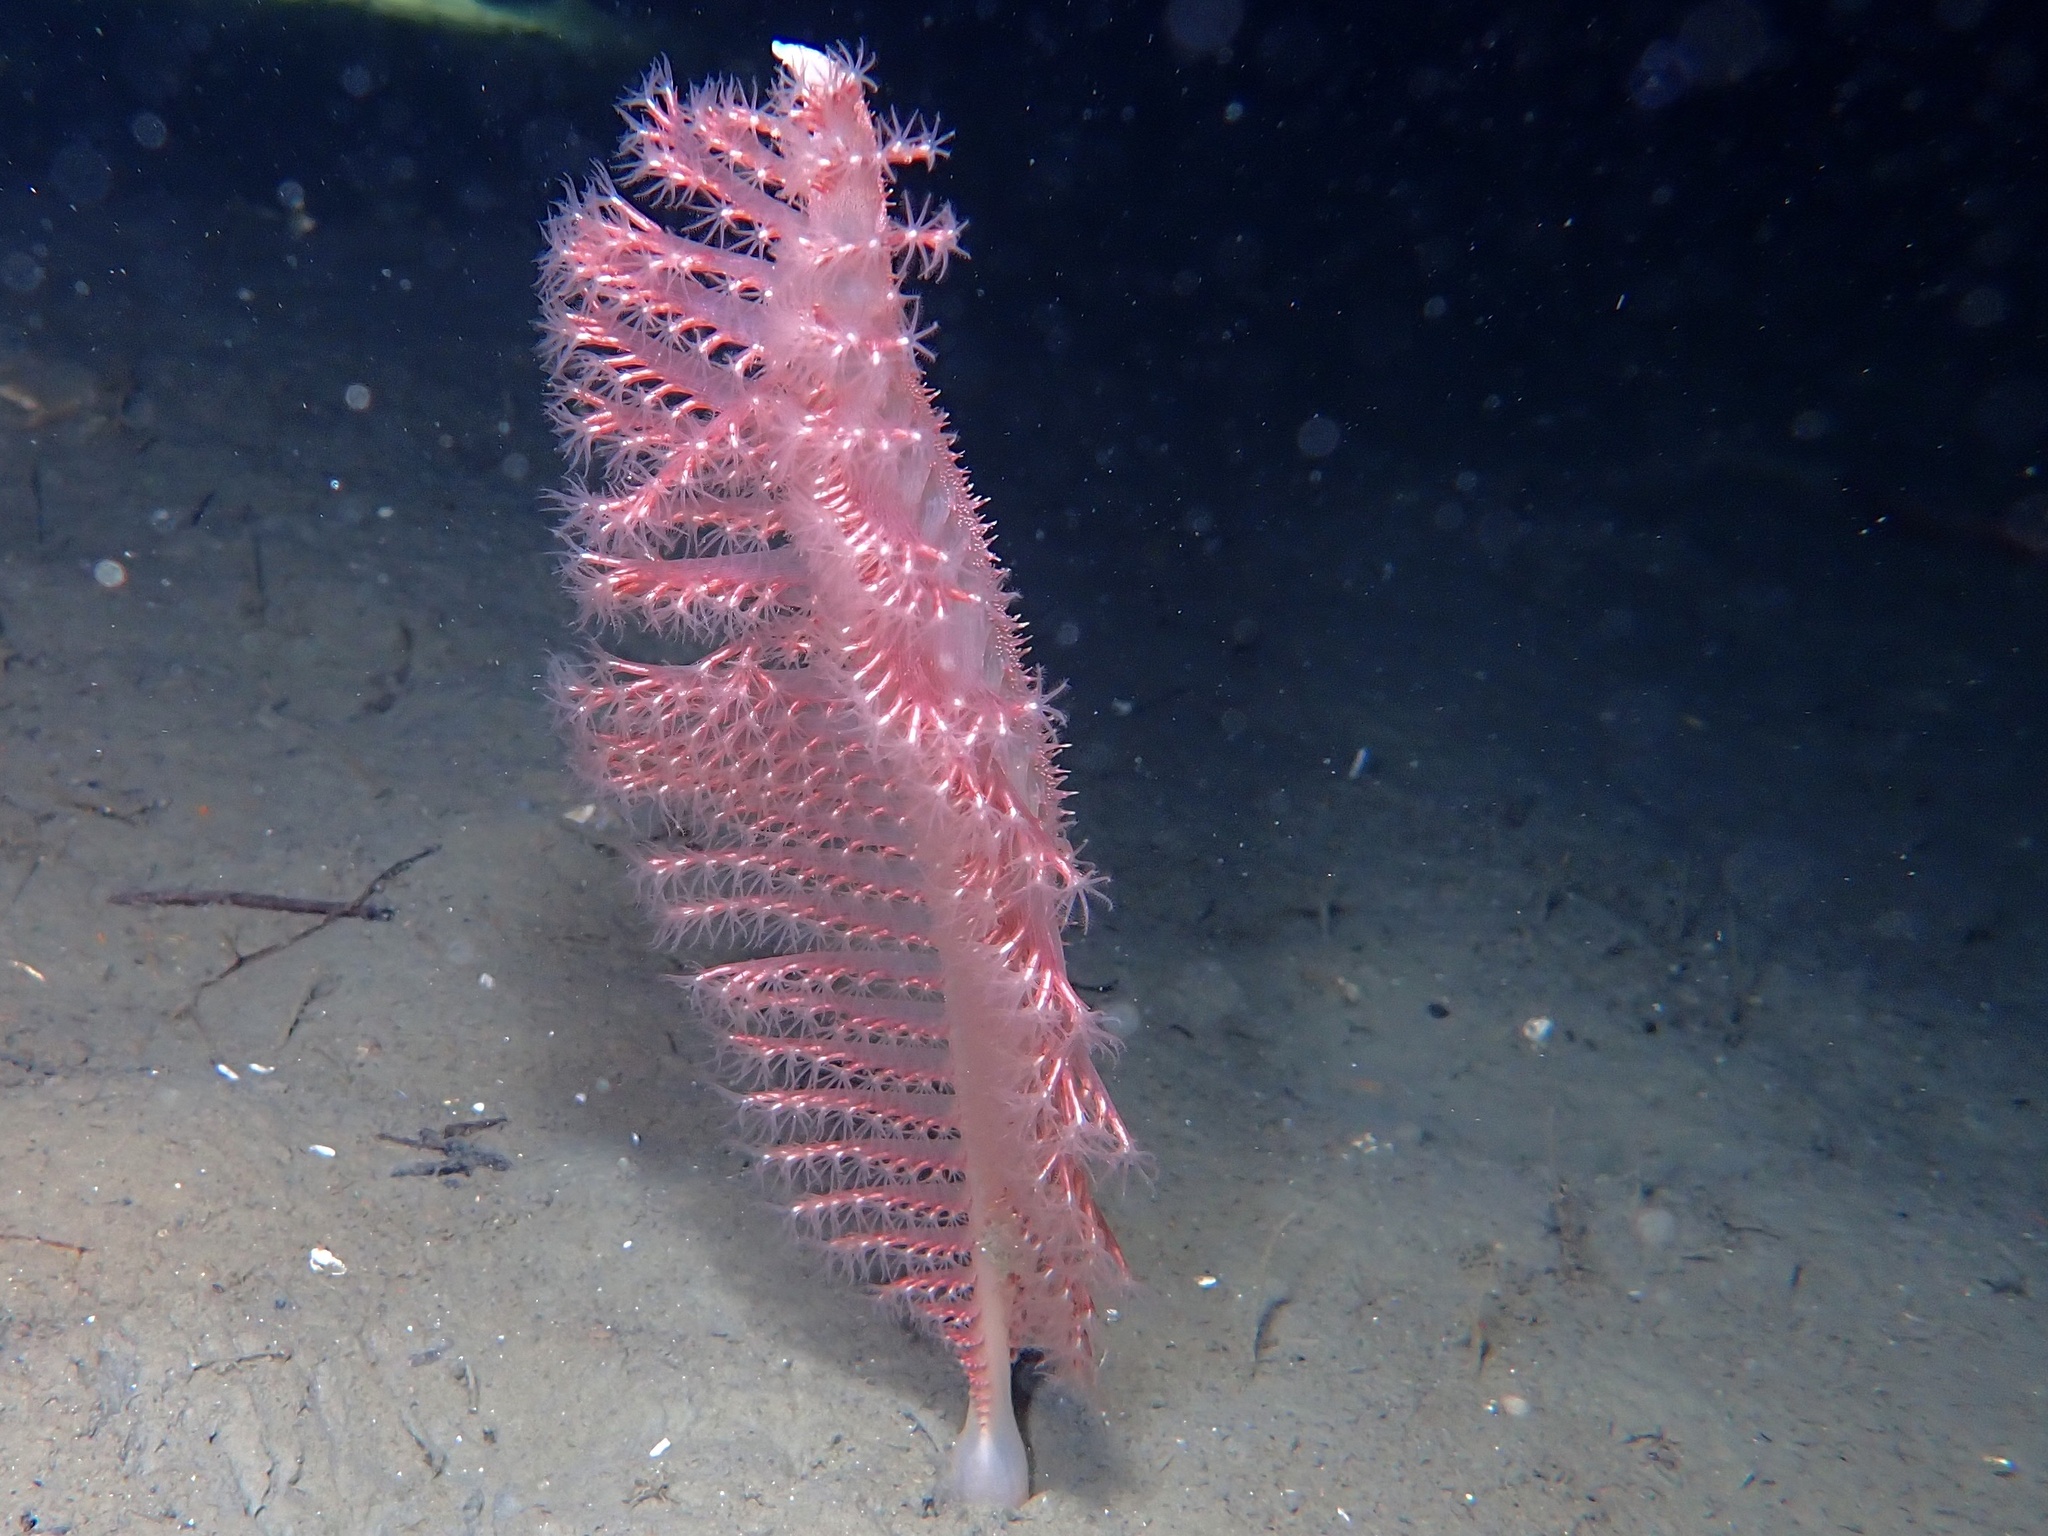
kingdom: Animalia
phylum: Cnidaria
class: Anthozoa
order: Scleralcyonacea
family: Pennatulidae
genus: Pennatula
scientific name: Pennatula phosphorea
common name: Phosphorescent sea pen
